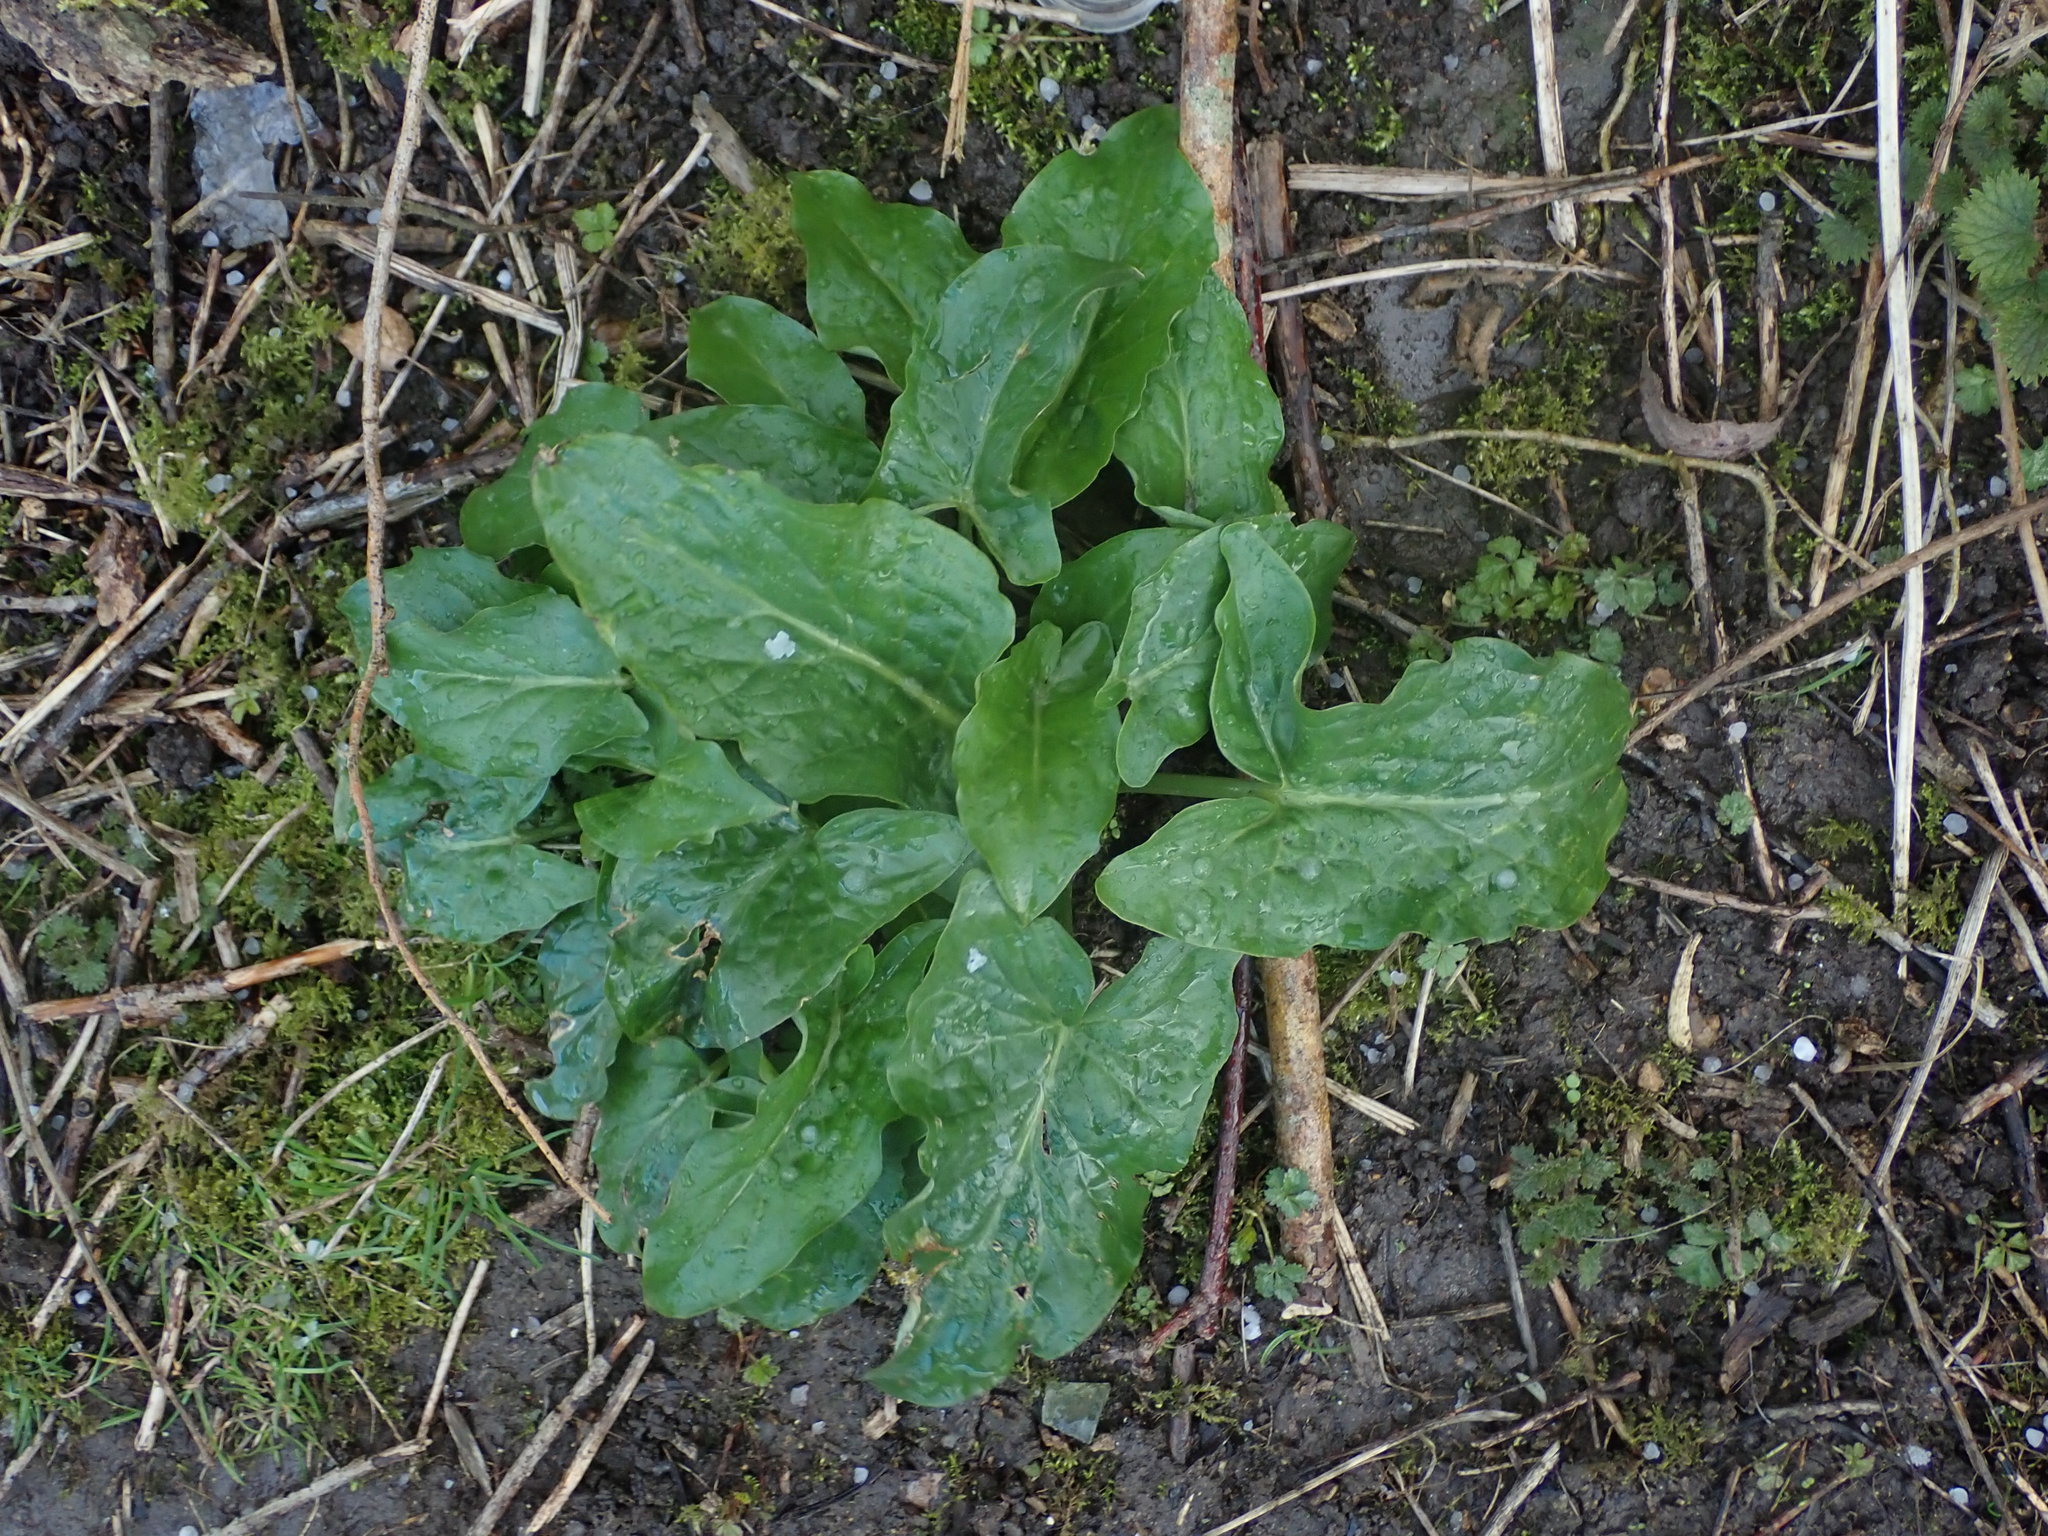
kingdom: Plantae
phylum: Tracheophyta
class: Liliopsida
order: Alismatales
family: Araceae
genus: Arum
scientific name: Arum maculatum
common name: Lords-and-ladies
